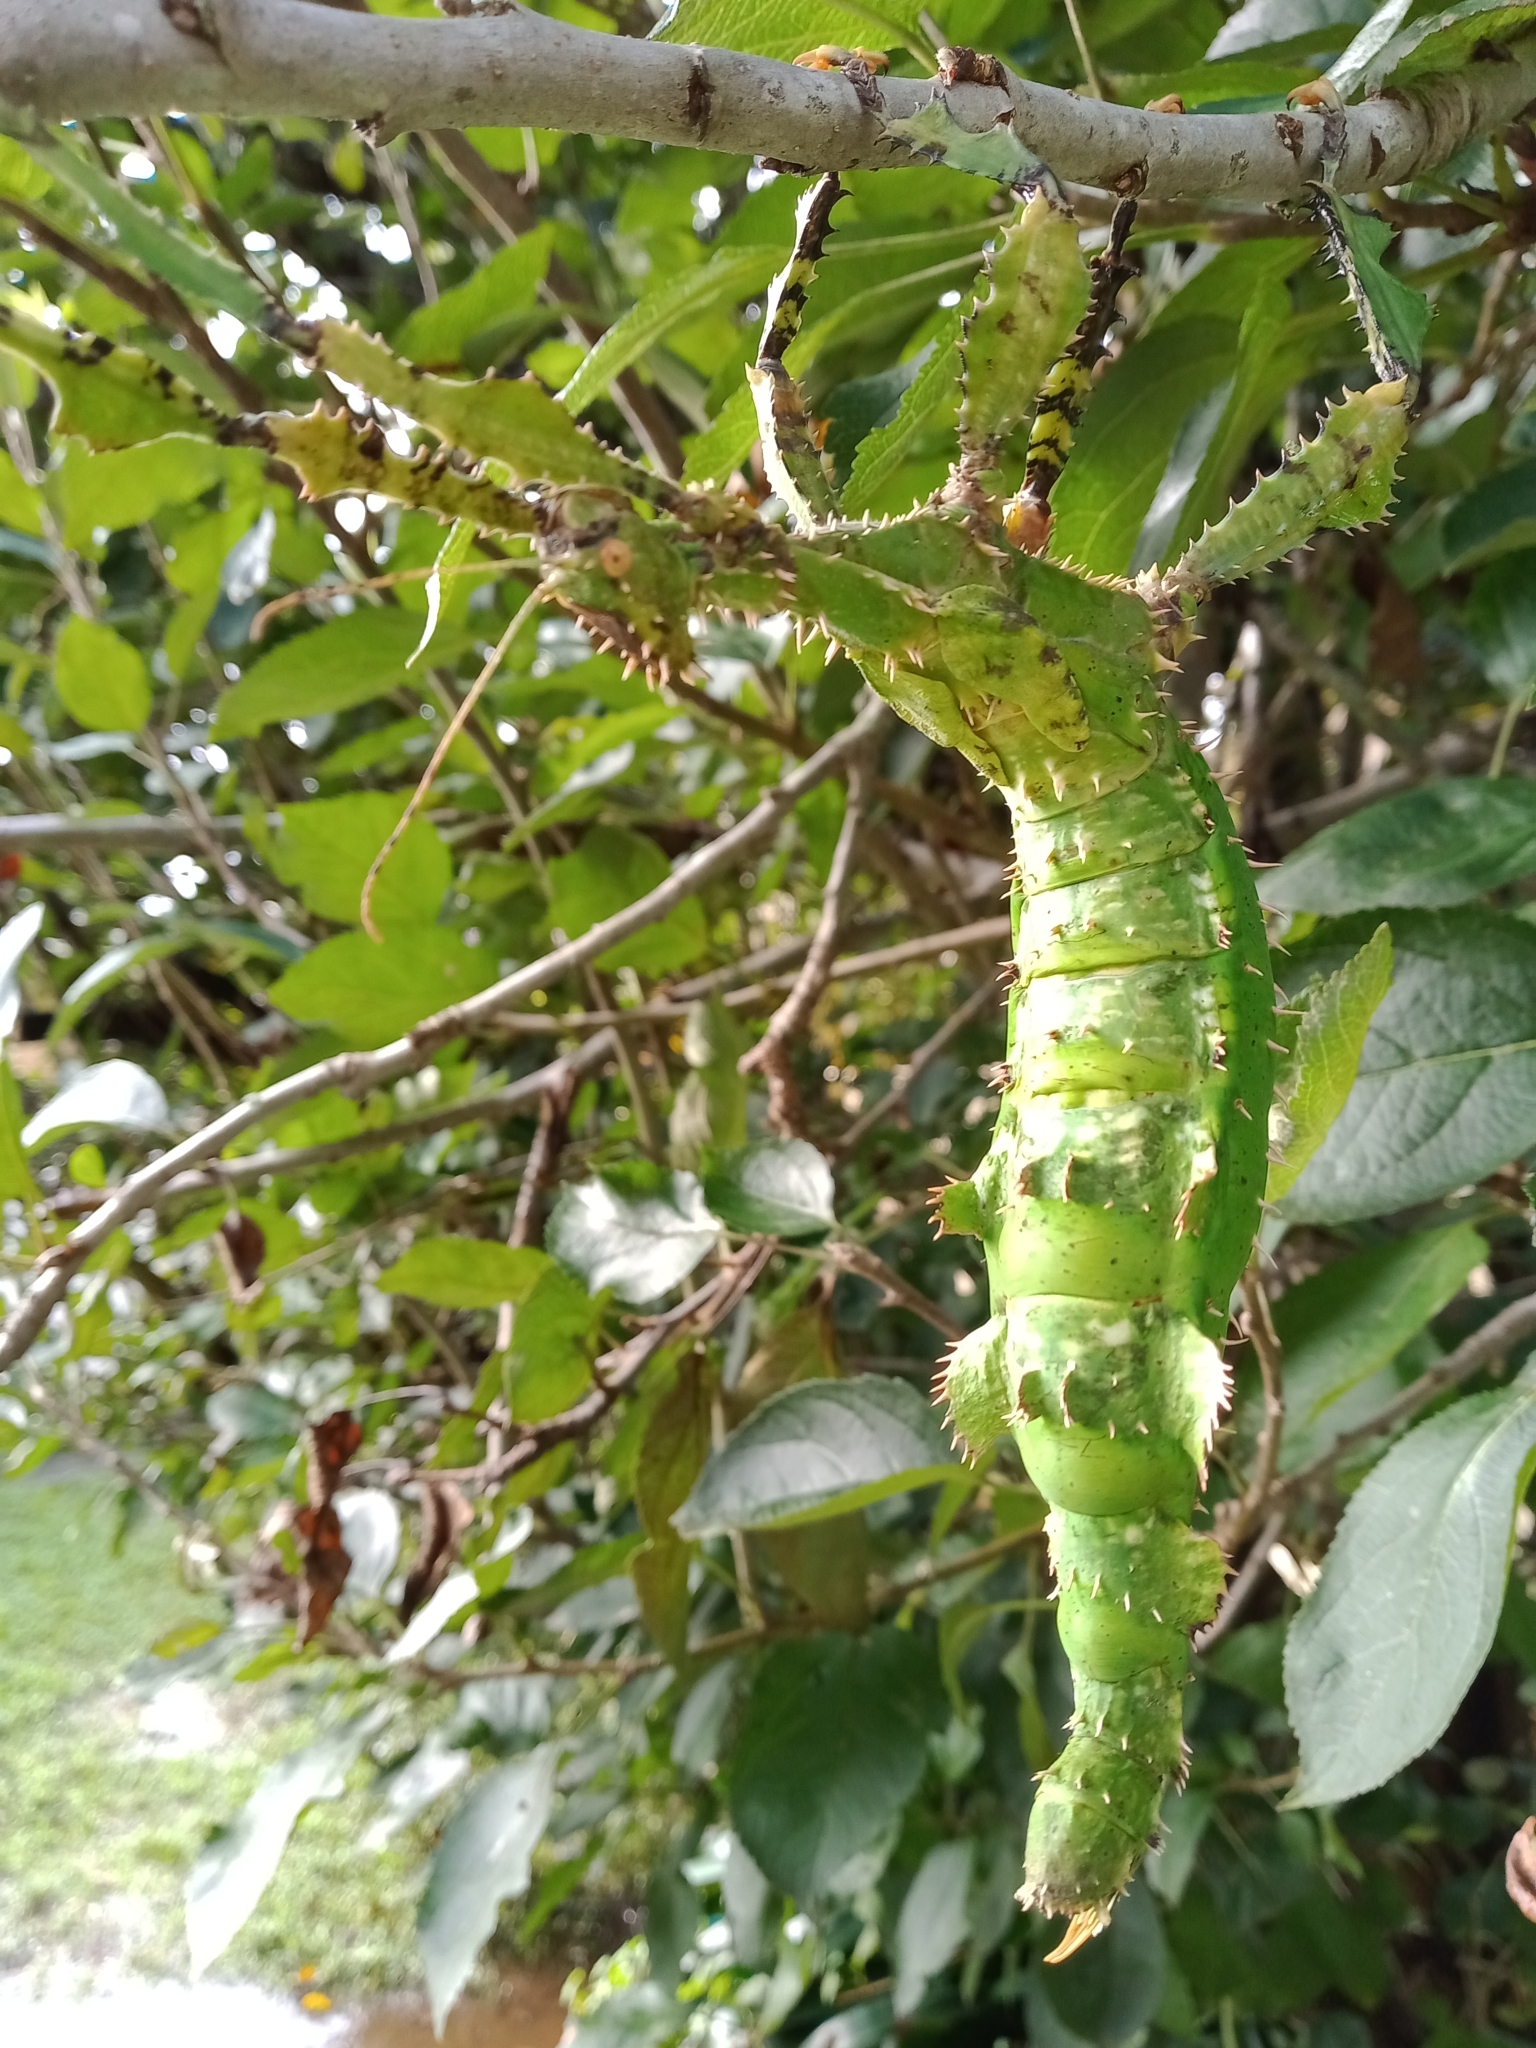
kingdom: Animalia
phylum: Arthropoda
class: Insecta
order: Phasmida
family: Phasmatidae
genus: Extatosoma
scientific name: Extatosoma tiaratum
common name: Macleay's spectre
